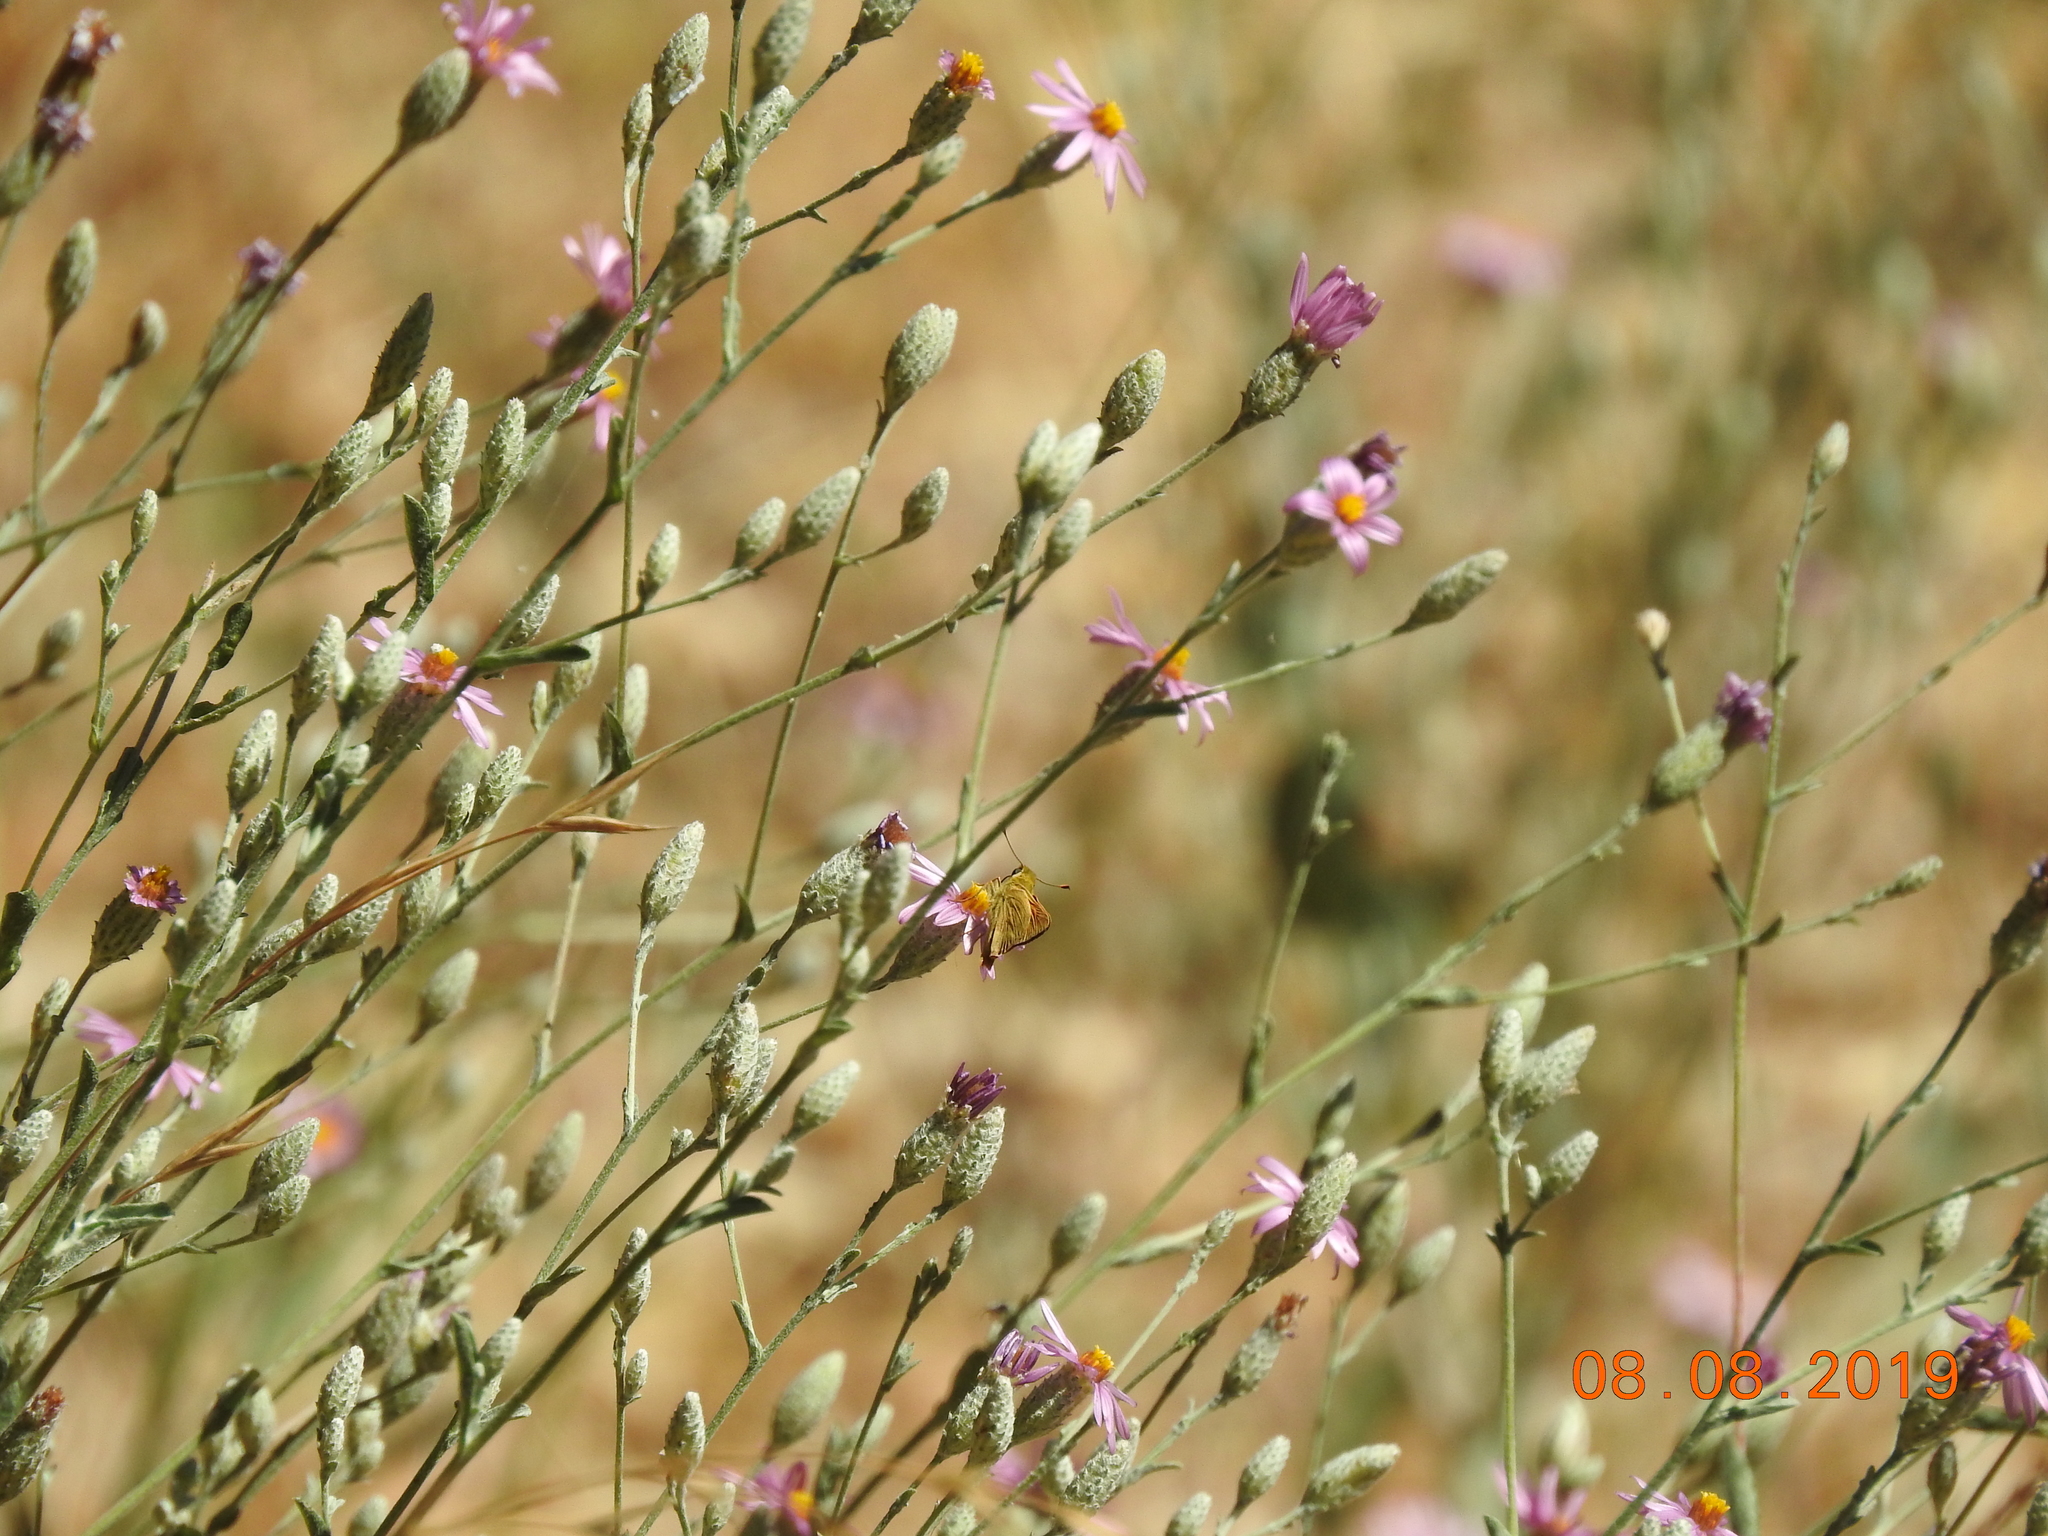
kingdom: Plantae
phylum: Tracheophyta
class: Magnoliopsida
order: Asterales
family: Asteraceae
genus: Corethrogyne
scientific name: Corethrogyne filaginifolia
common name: Sand-aster
